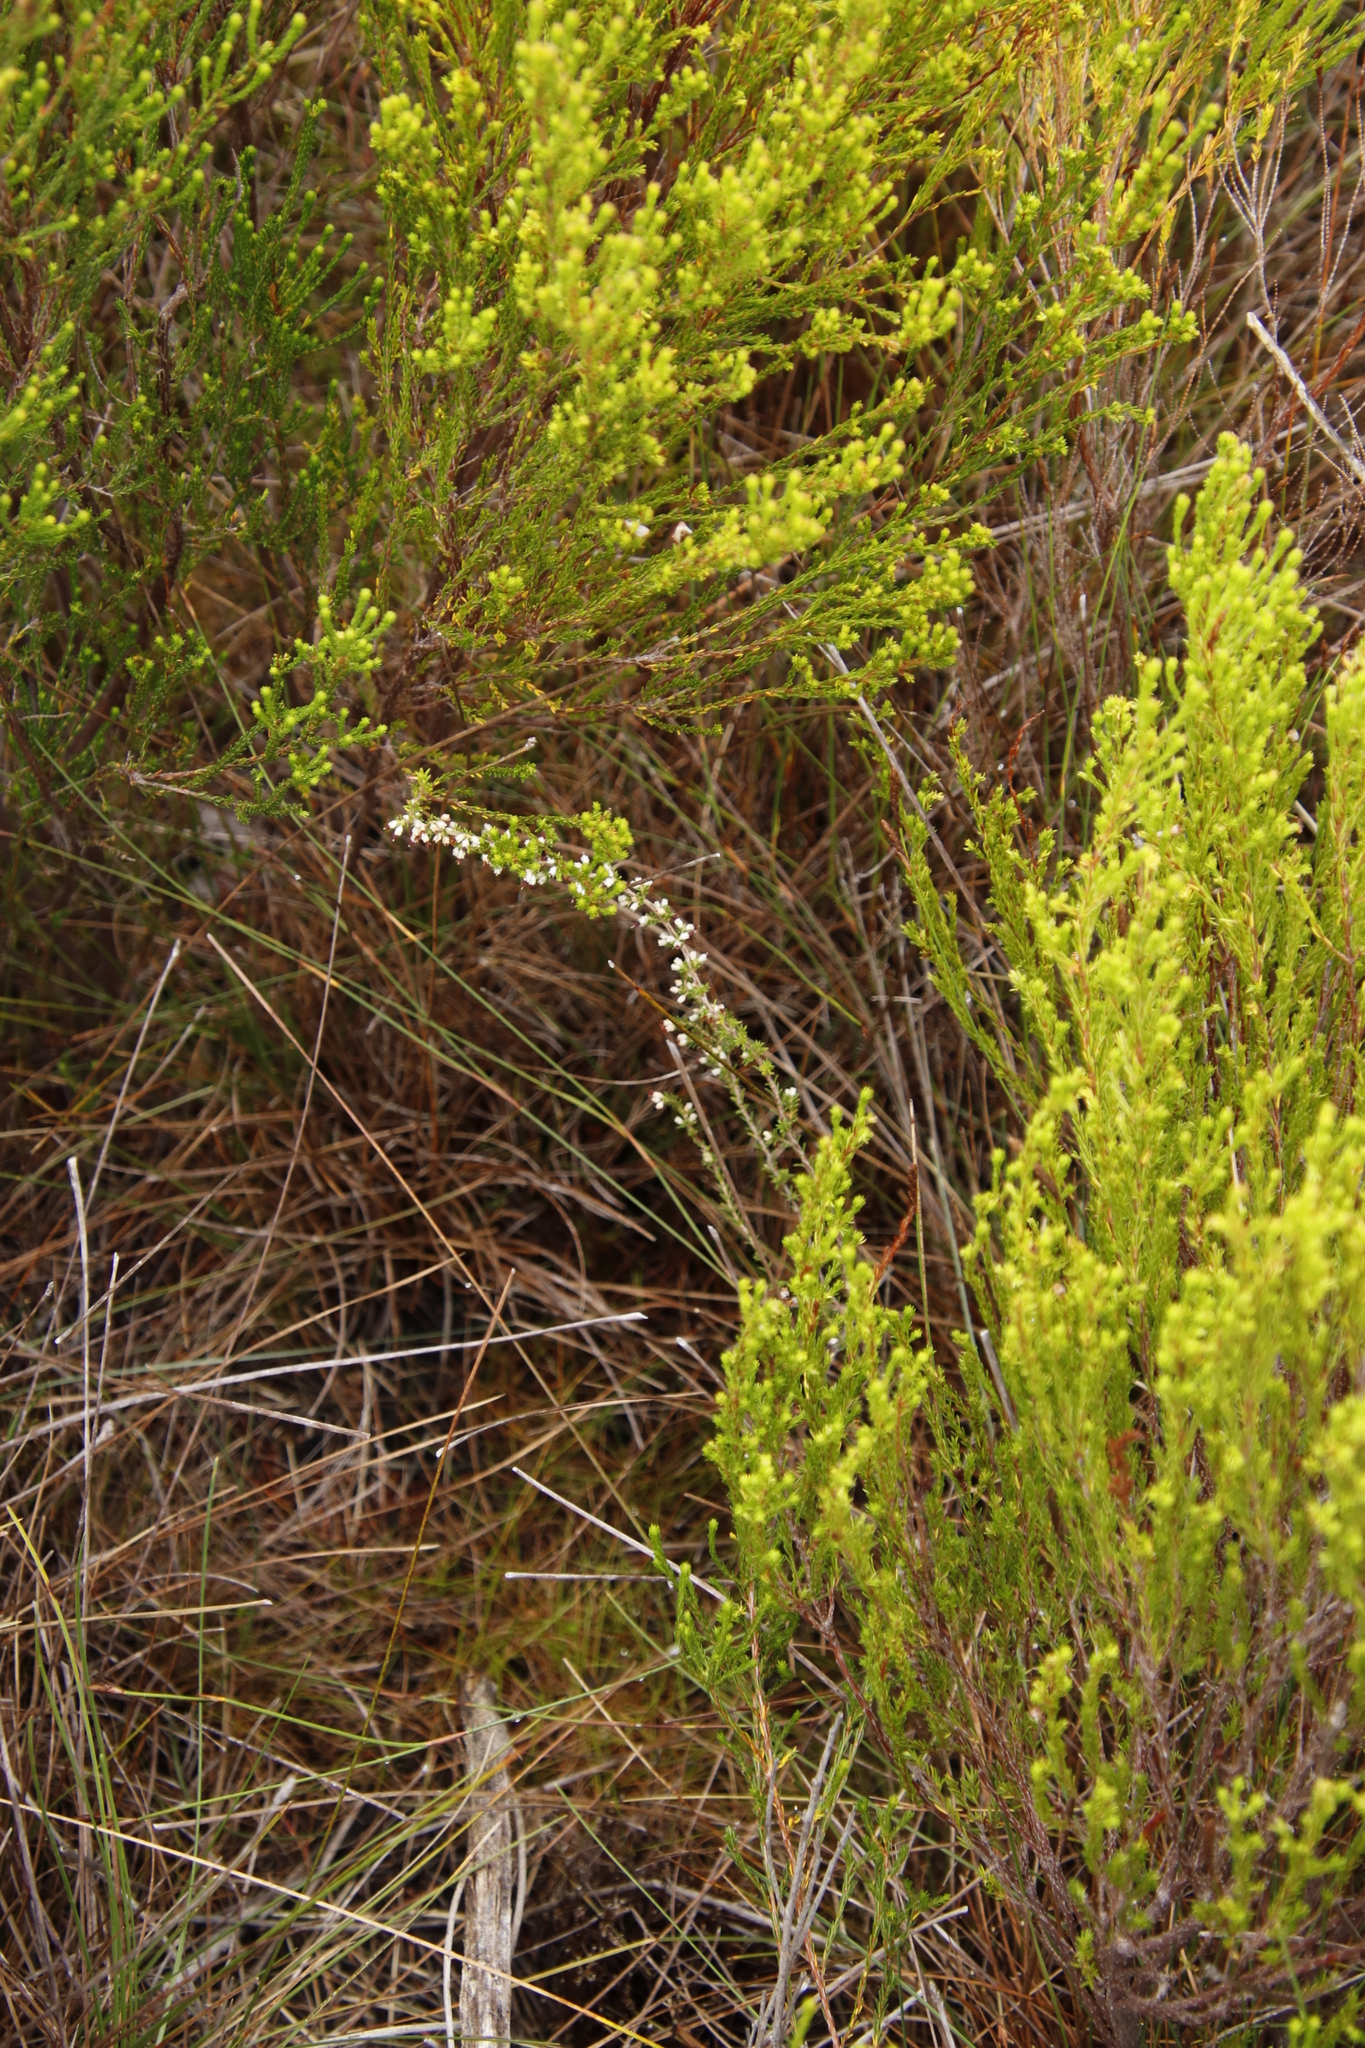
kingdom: Plantae
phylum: Tracheophyta
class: Magnoliopsida
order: Ericales
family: Ericaceae
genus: Erica
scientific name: Erica lasciva
